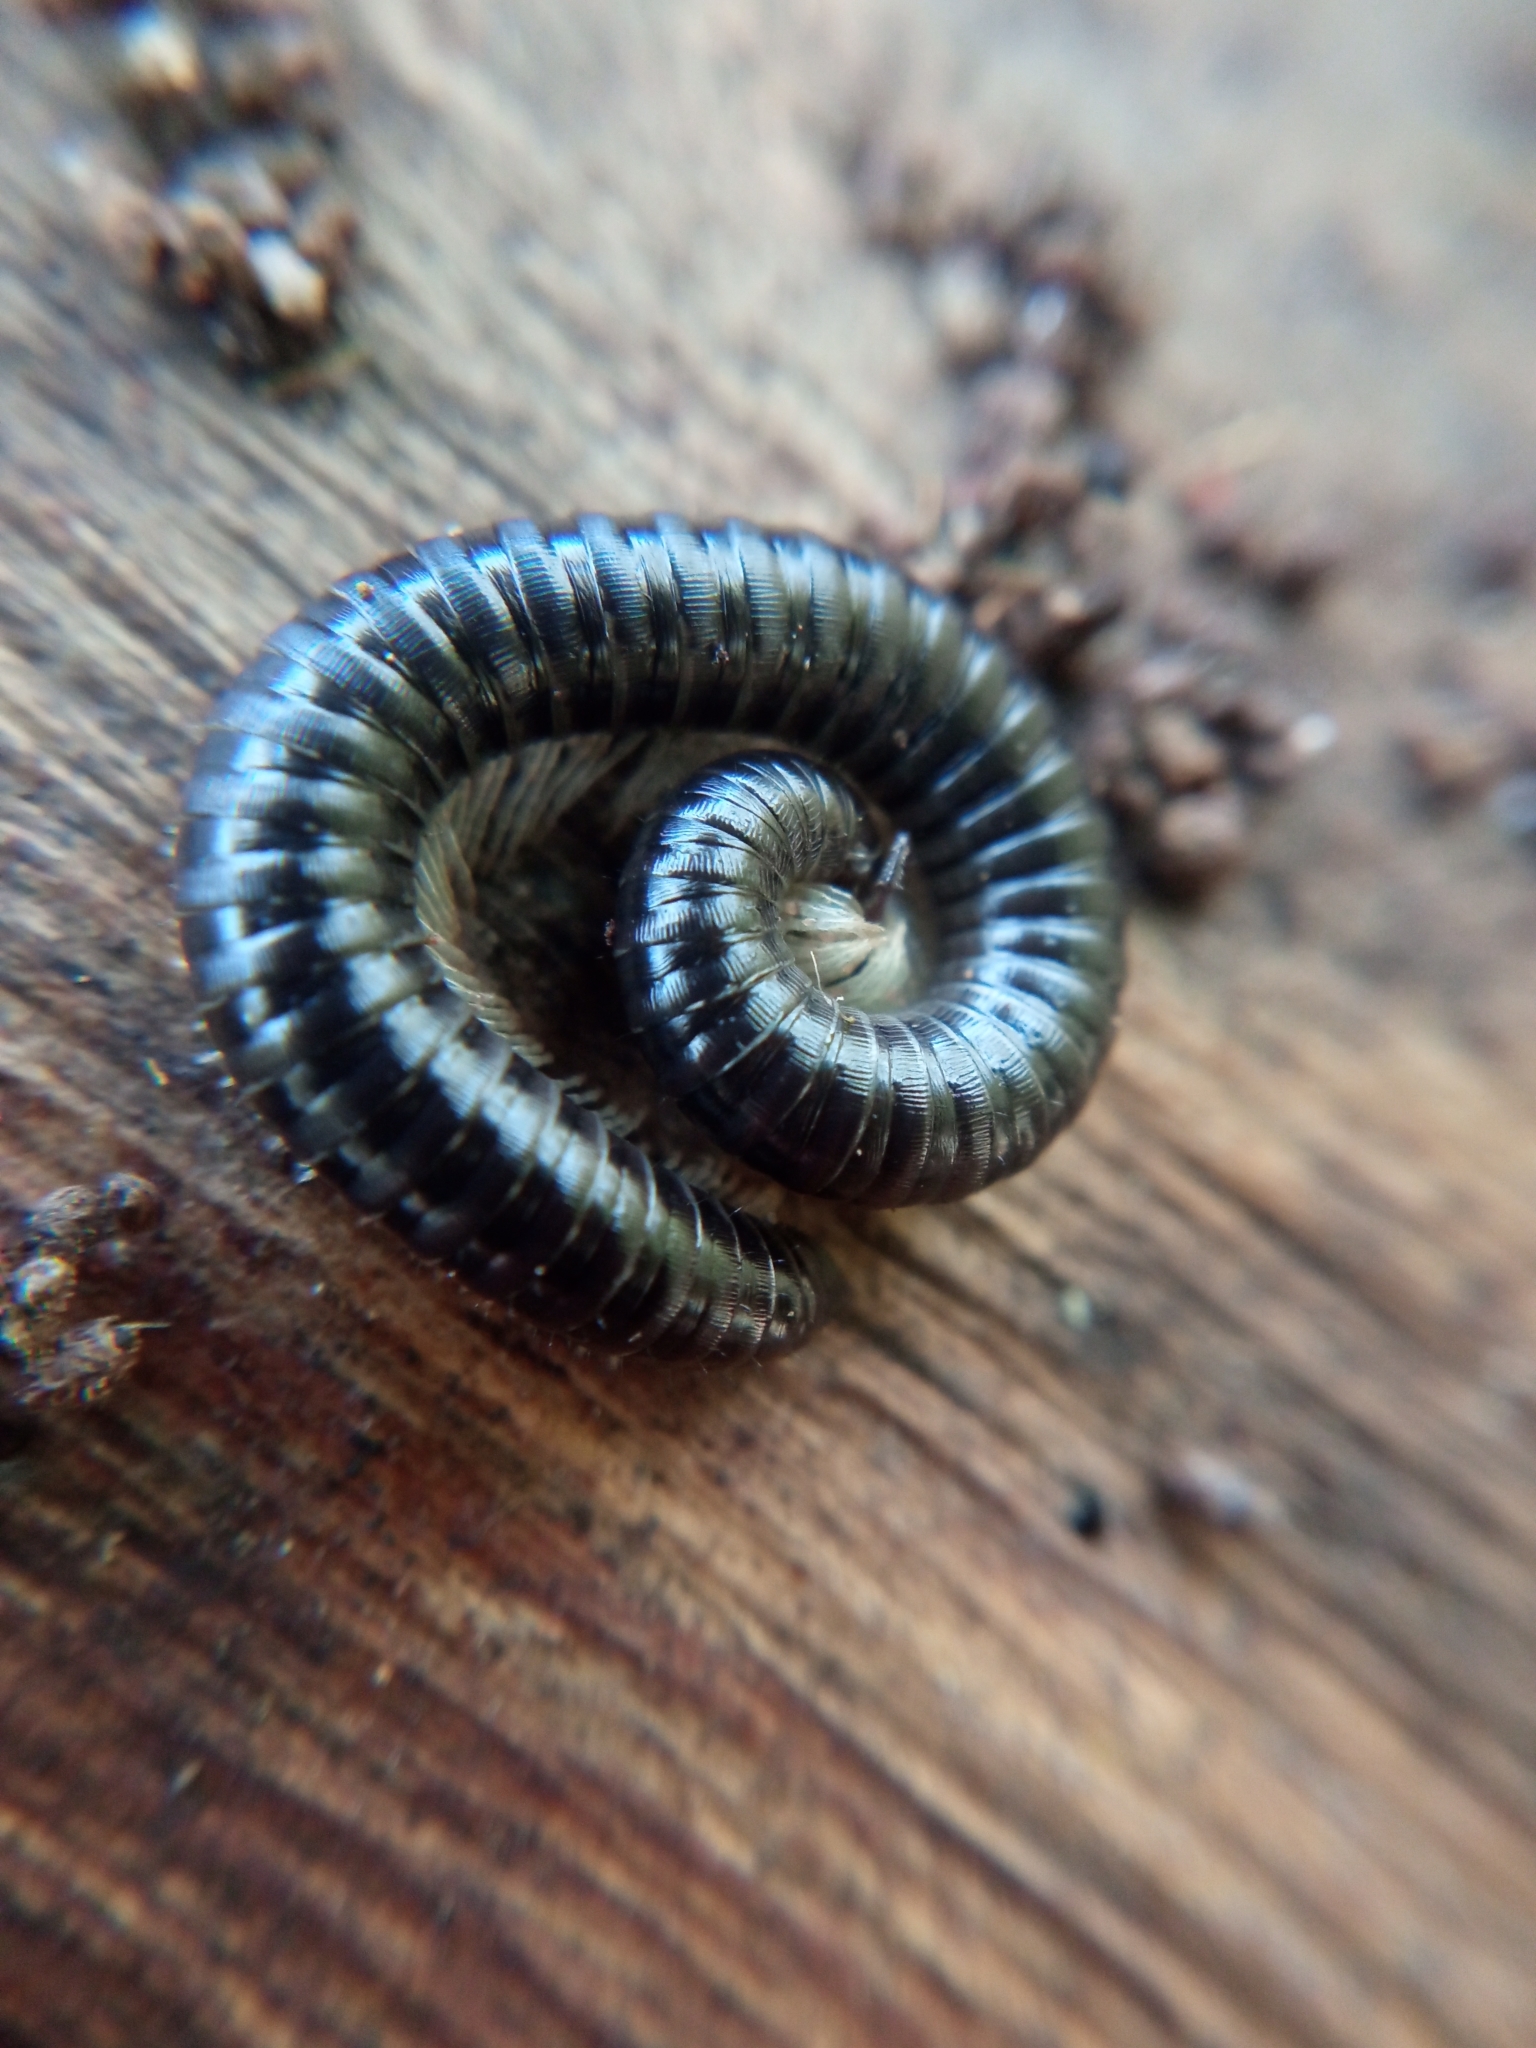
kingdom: Animalia
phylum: Arthropoda
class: Diplopoda
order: Julida
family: Julidae
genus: Tachypodoiulus
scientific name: Tachypodoiulus niger
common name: White-legged snake millipede
